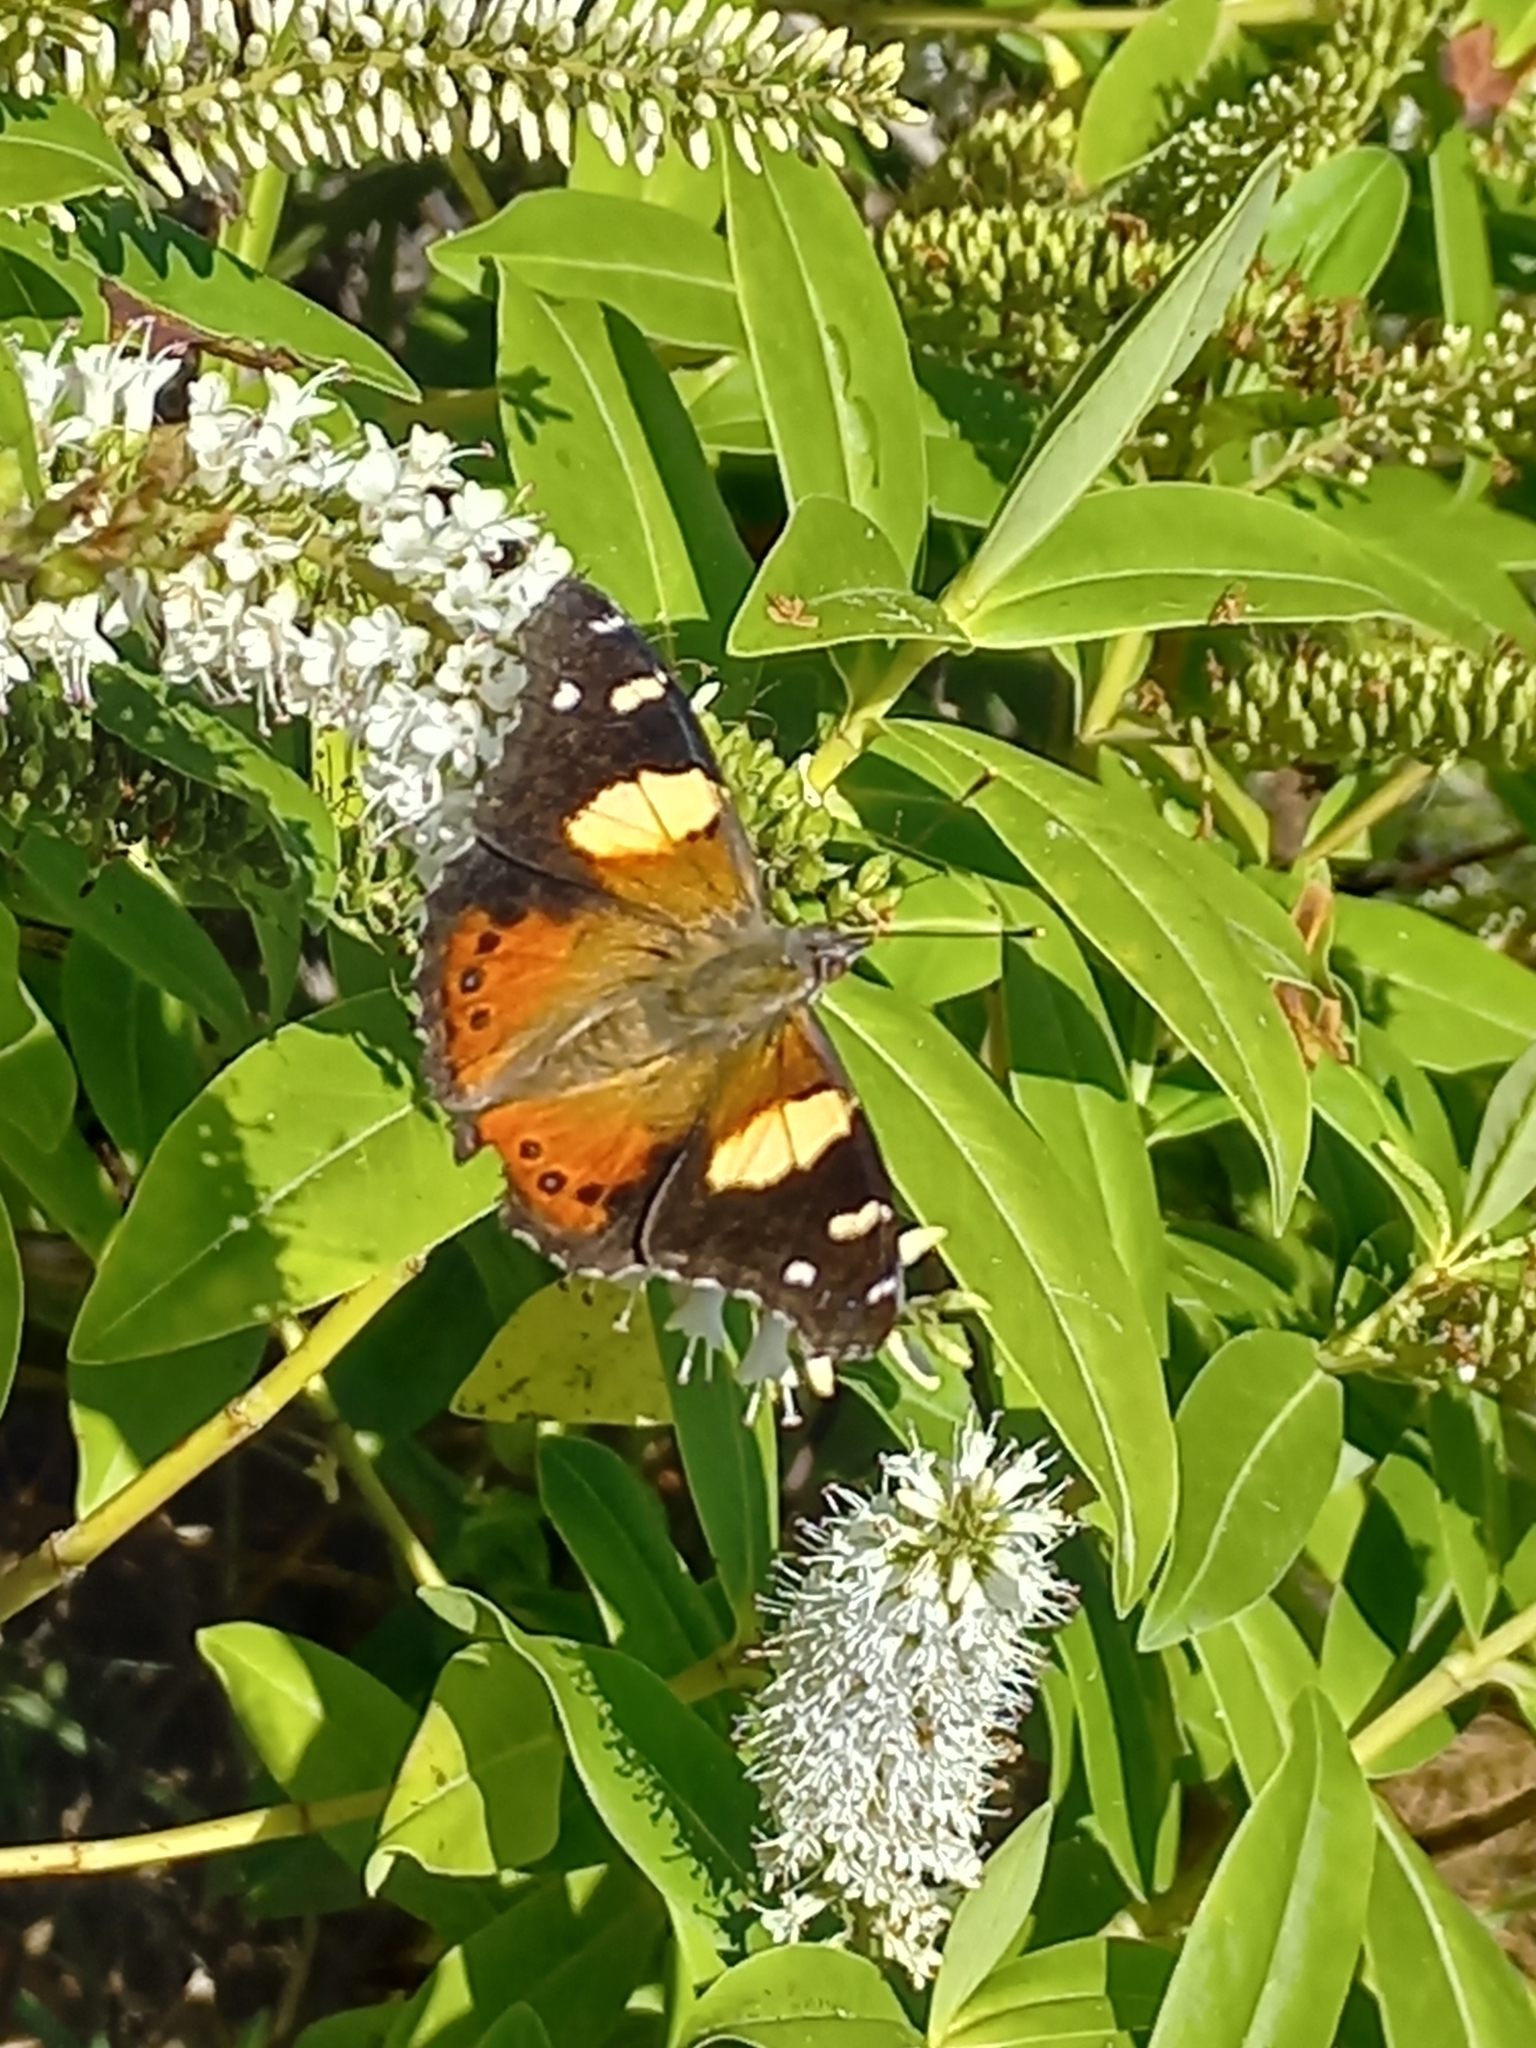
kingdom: Animalia
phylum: Arthropoda
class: Insecta
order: Lepidoptera
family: Nymphalidae
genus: Vanessa
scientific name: Vanessa itea
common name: Yellow admiral
